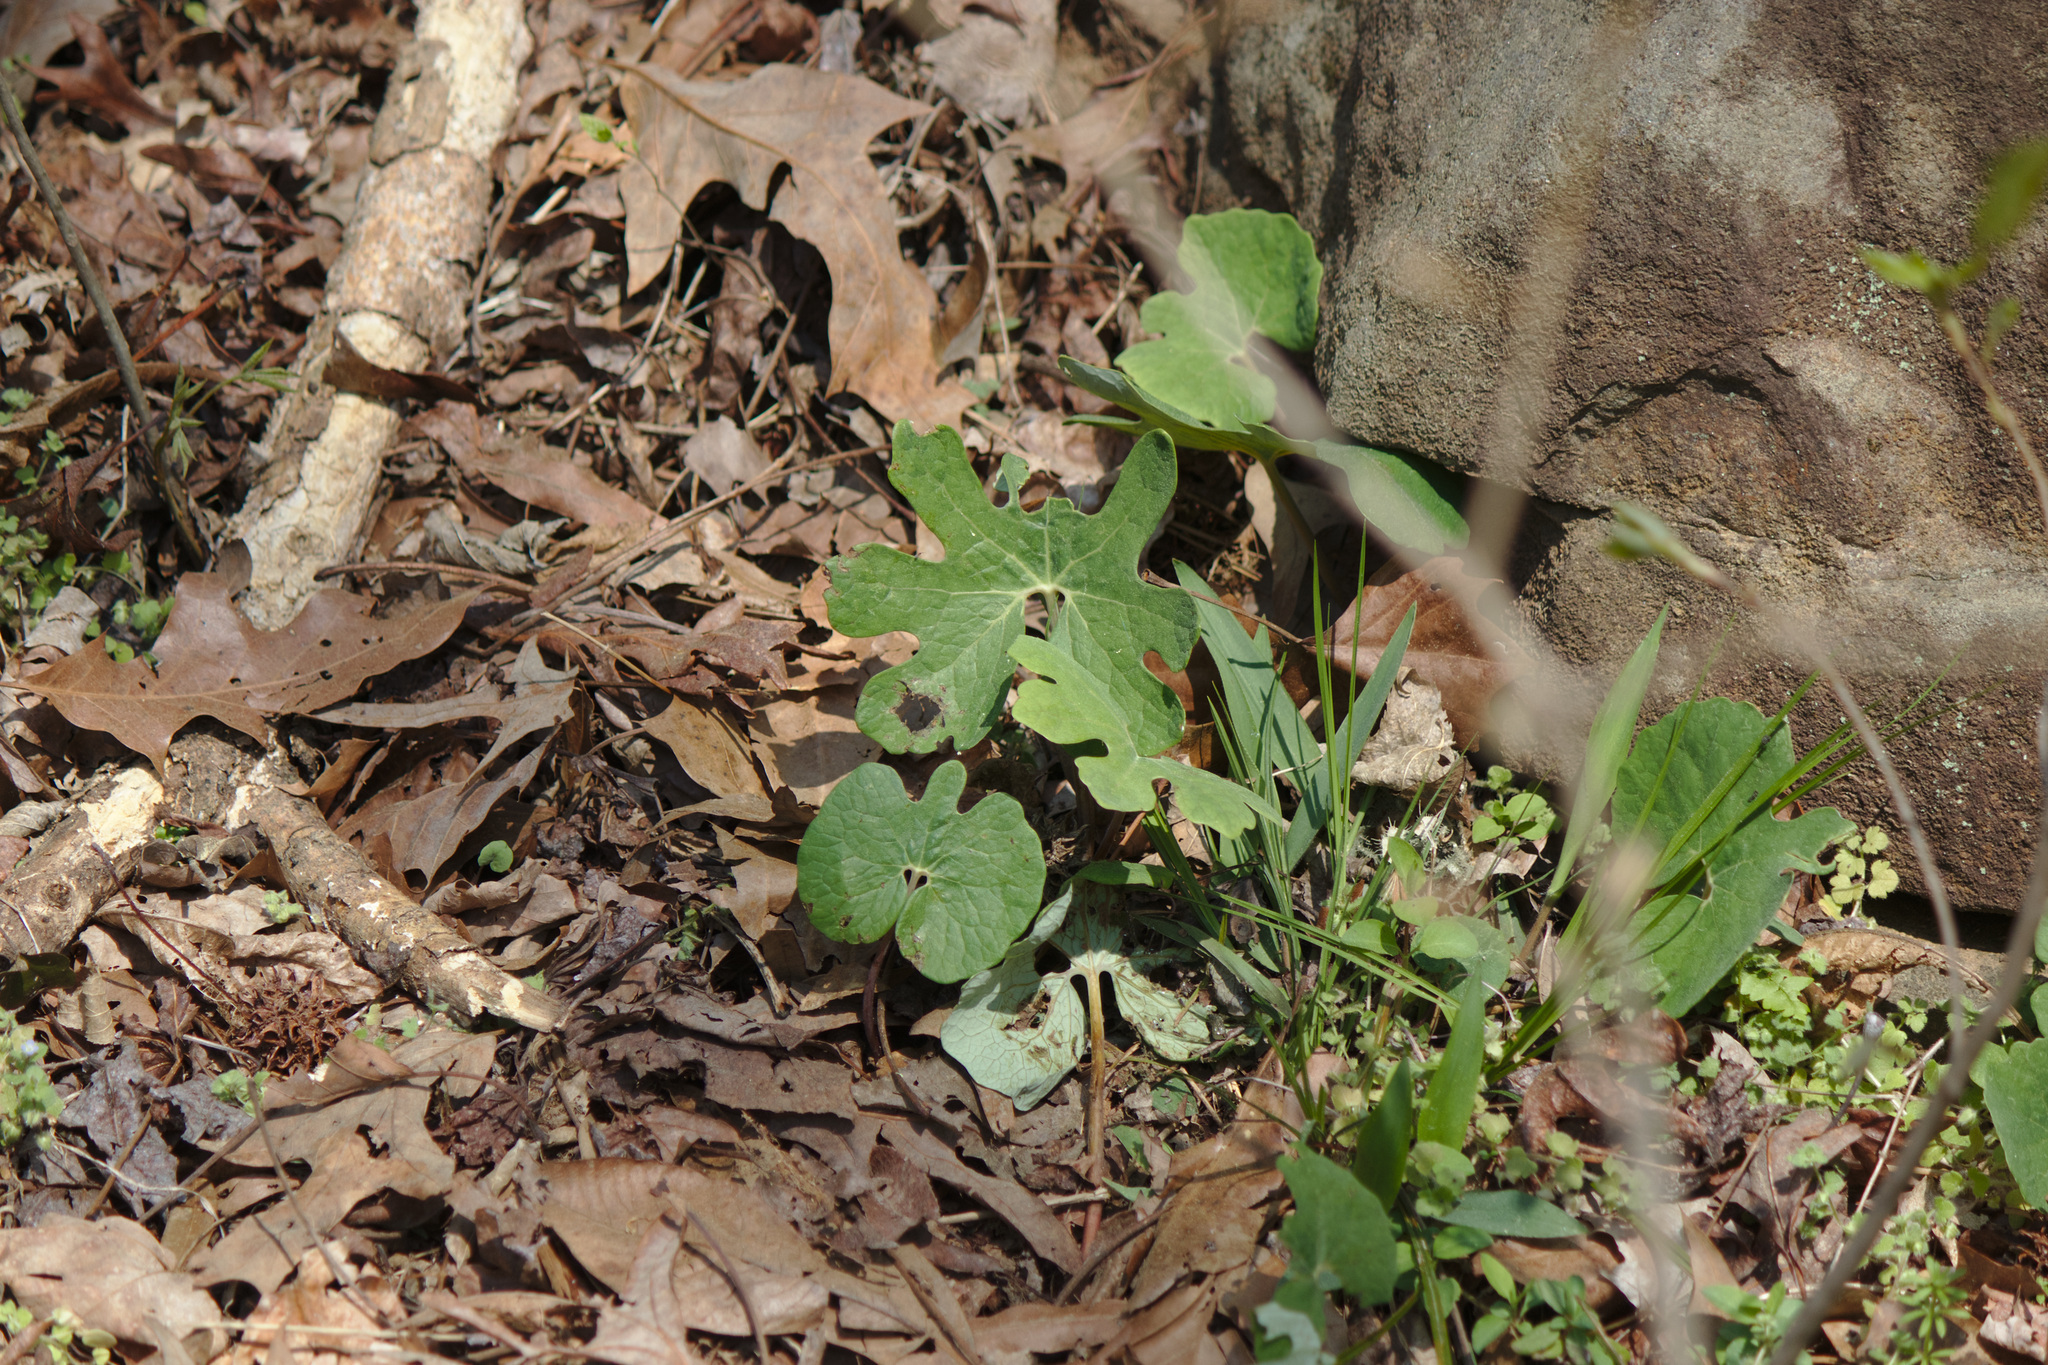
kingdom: Plantae
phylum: Tracheophyta
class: Magnoliopsida
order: Ranunculales
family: Papaveraceae
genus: Sanguinaria
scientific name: Sanguinaria canadensis
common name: Bloodroot
